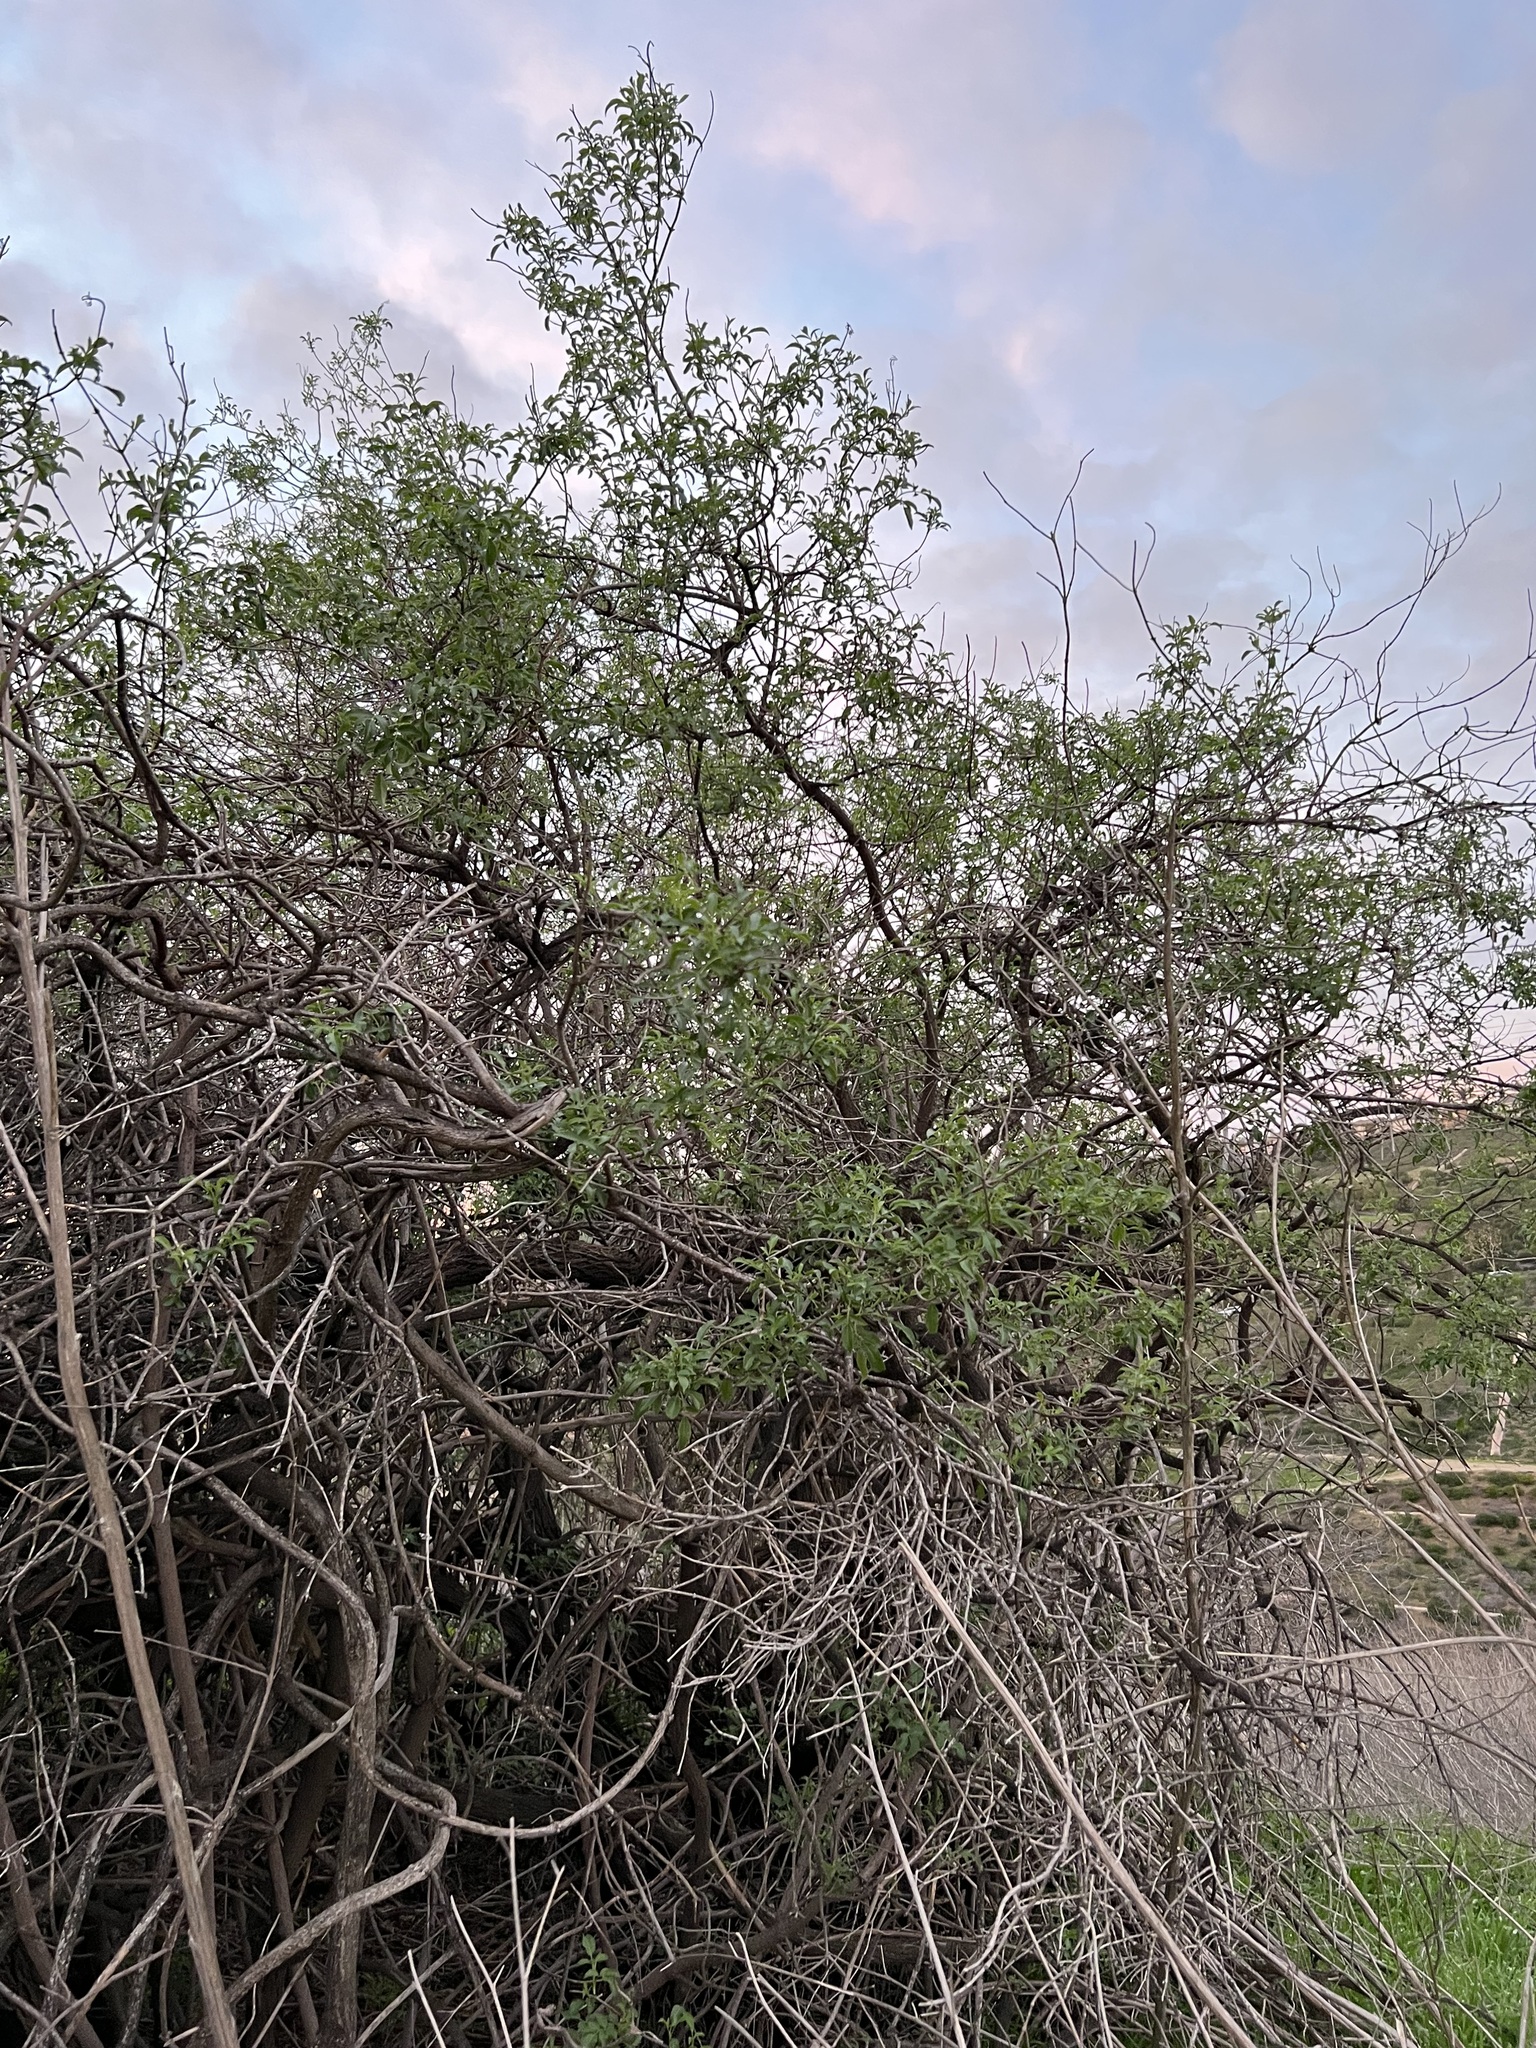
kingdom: Plantae
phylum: Tracheophyta
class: Magnoliopsida
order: Dipsacales
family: Viburnaceae
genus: Sambucus
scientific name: Sambucus cerulea
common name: Blue elder
